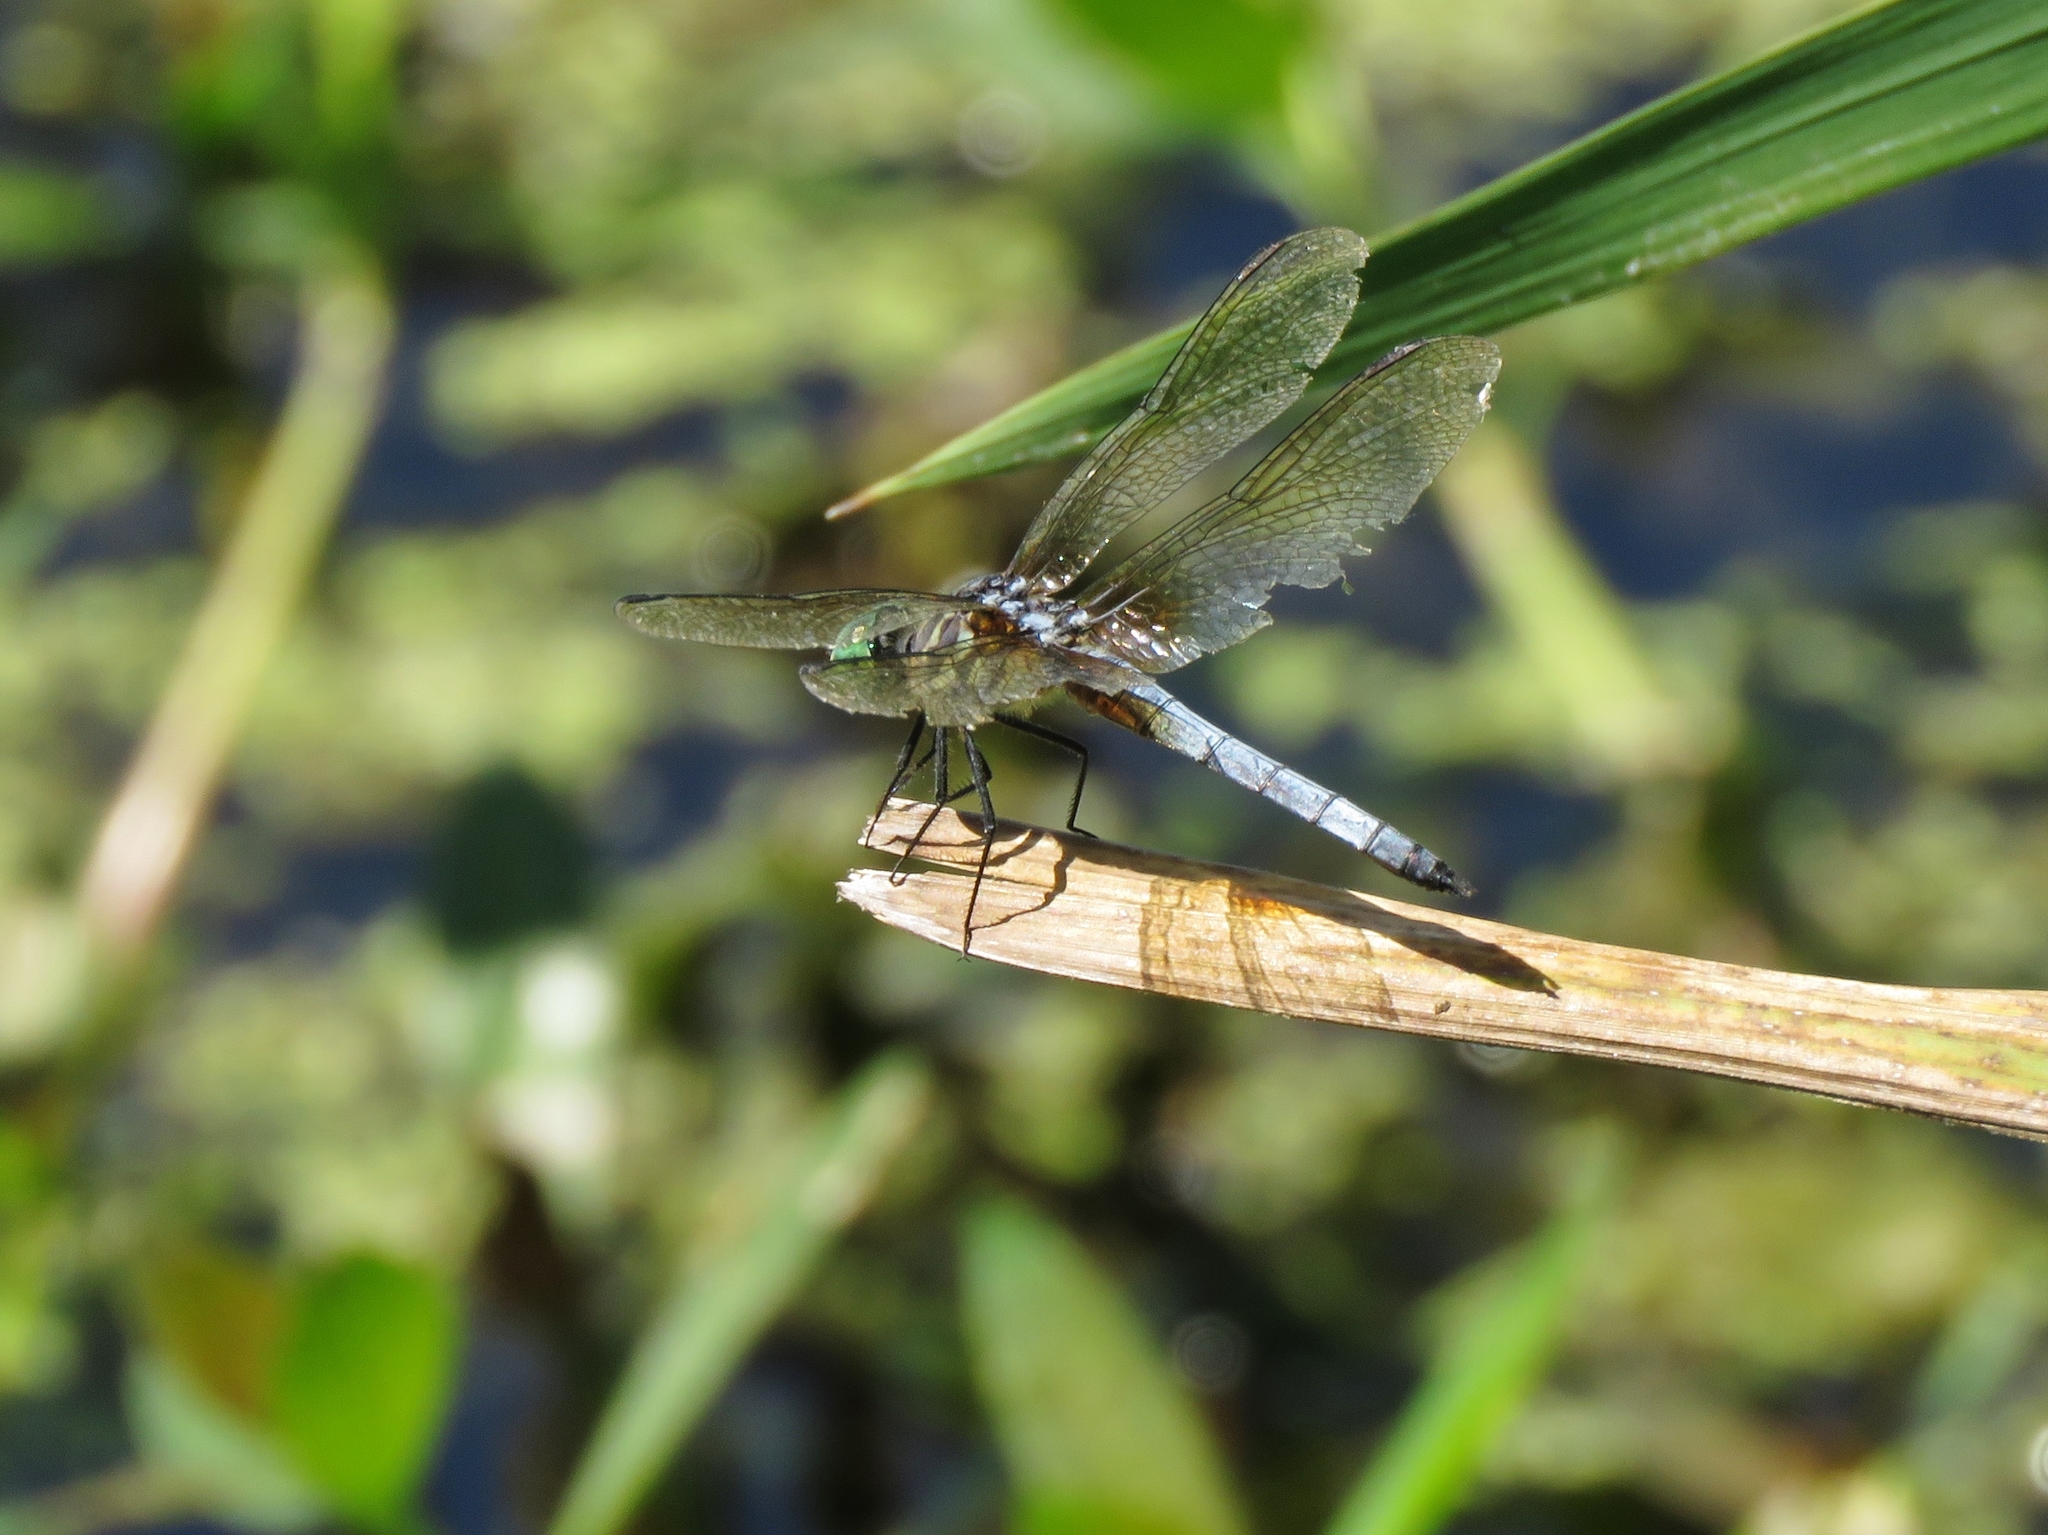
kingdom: Animalia
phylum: Arthropoda
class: Insecta
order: Odonata
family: Libellulidae
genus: Pachydiplax
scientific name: Pachydiplax longipennis
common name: Blue dasher
